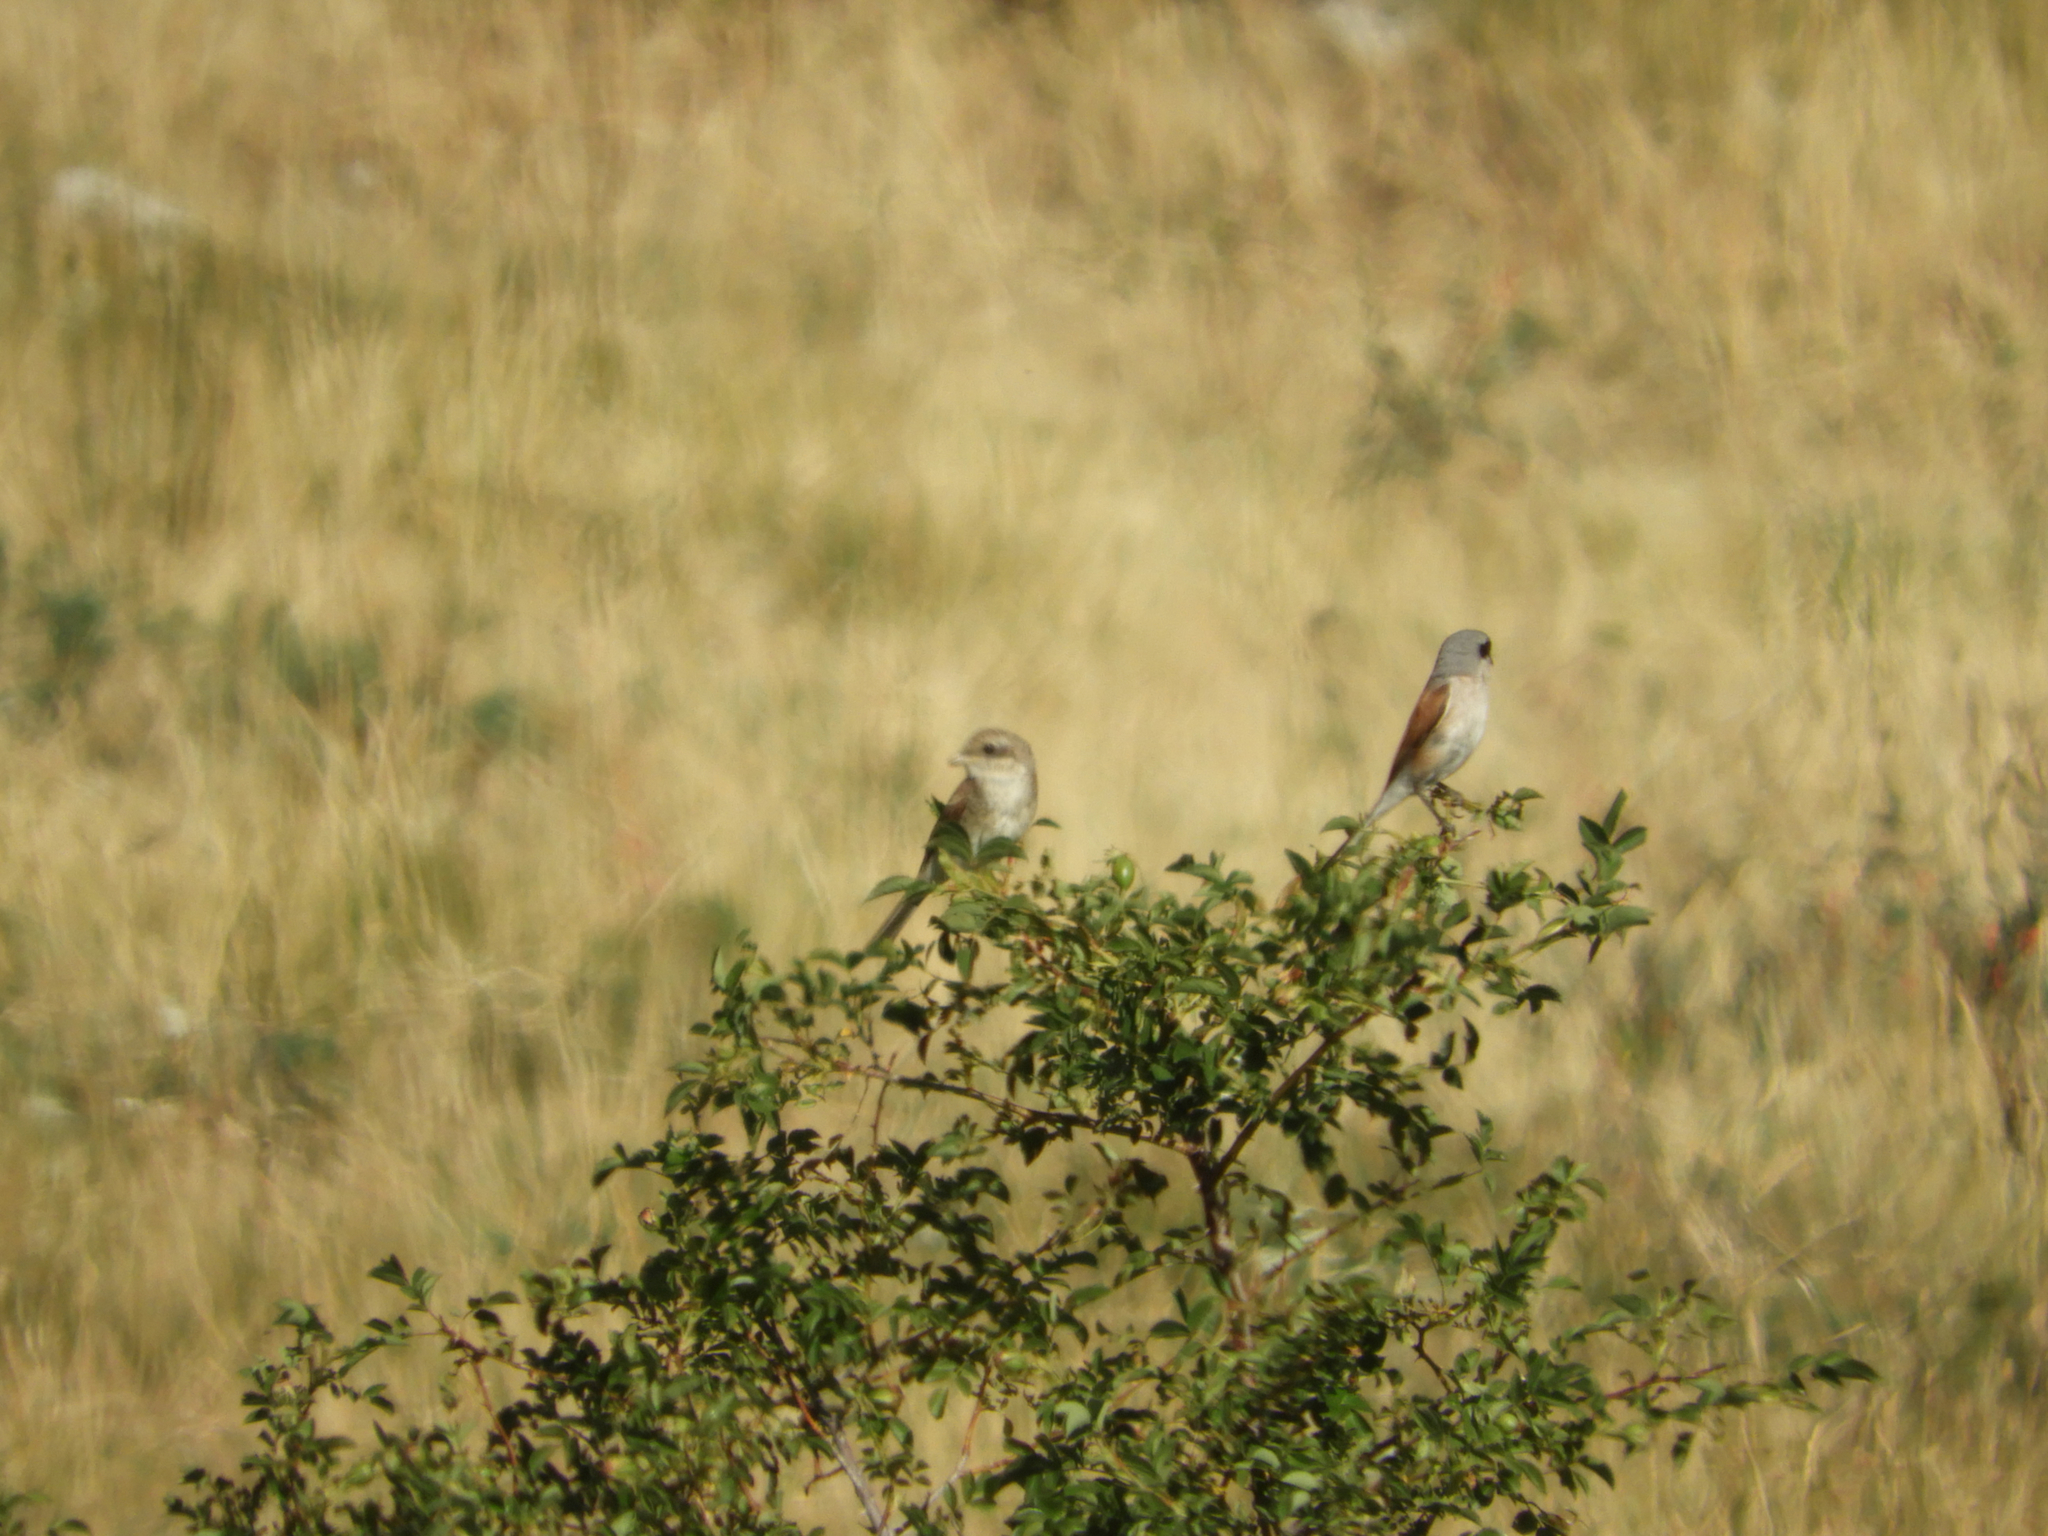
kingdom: Animalia
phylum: Chordata
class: Aves
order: Passeriformes
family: Laniidae
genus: Lanius
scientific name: Lanius collurio
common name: Red-backed shrike
